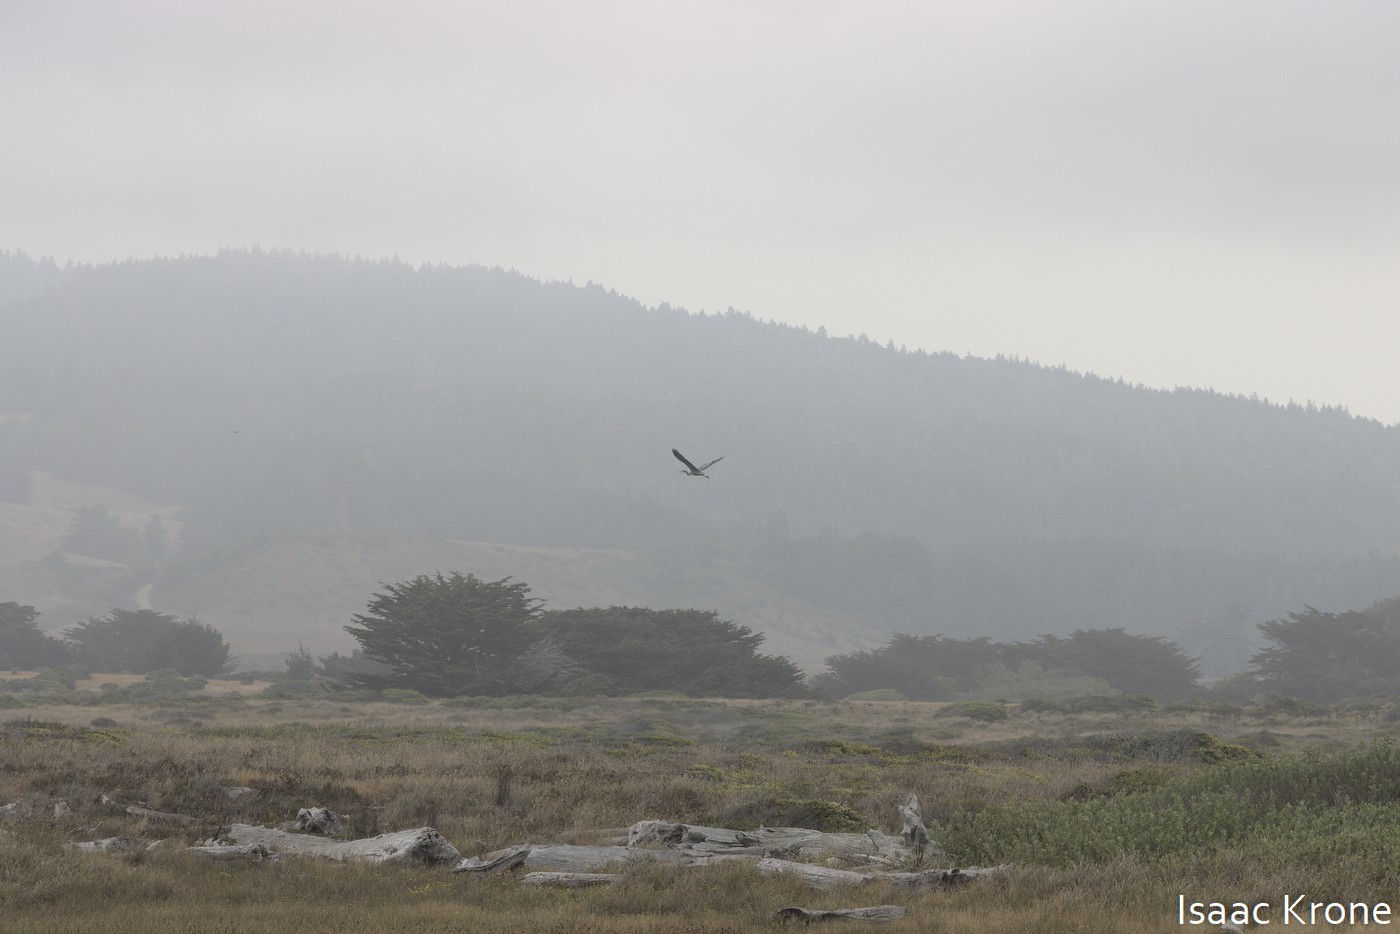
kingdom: Animalia
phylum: Chordata
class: Aves
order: Pelecaniformes
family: Ardeidae
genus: Ardea
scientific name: Ardea herodias
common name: Great blue heron
